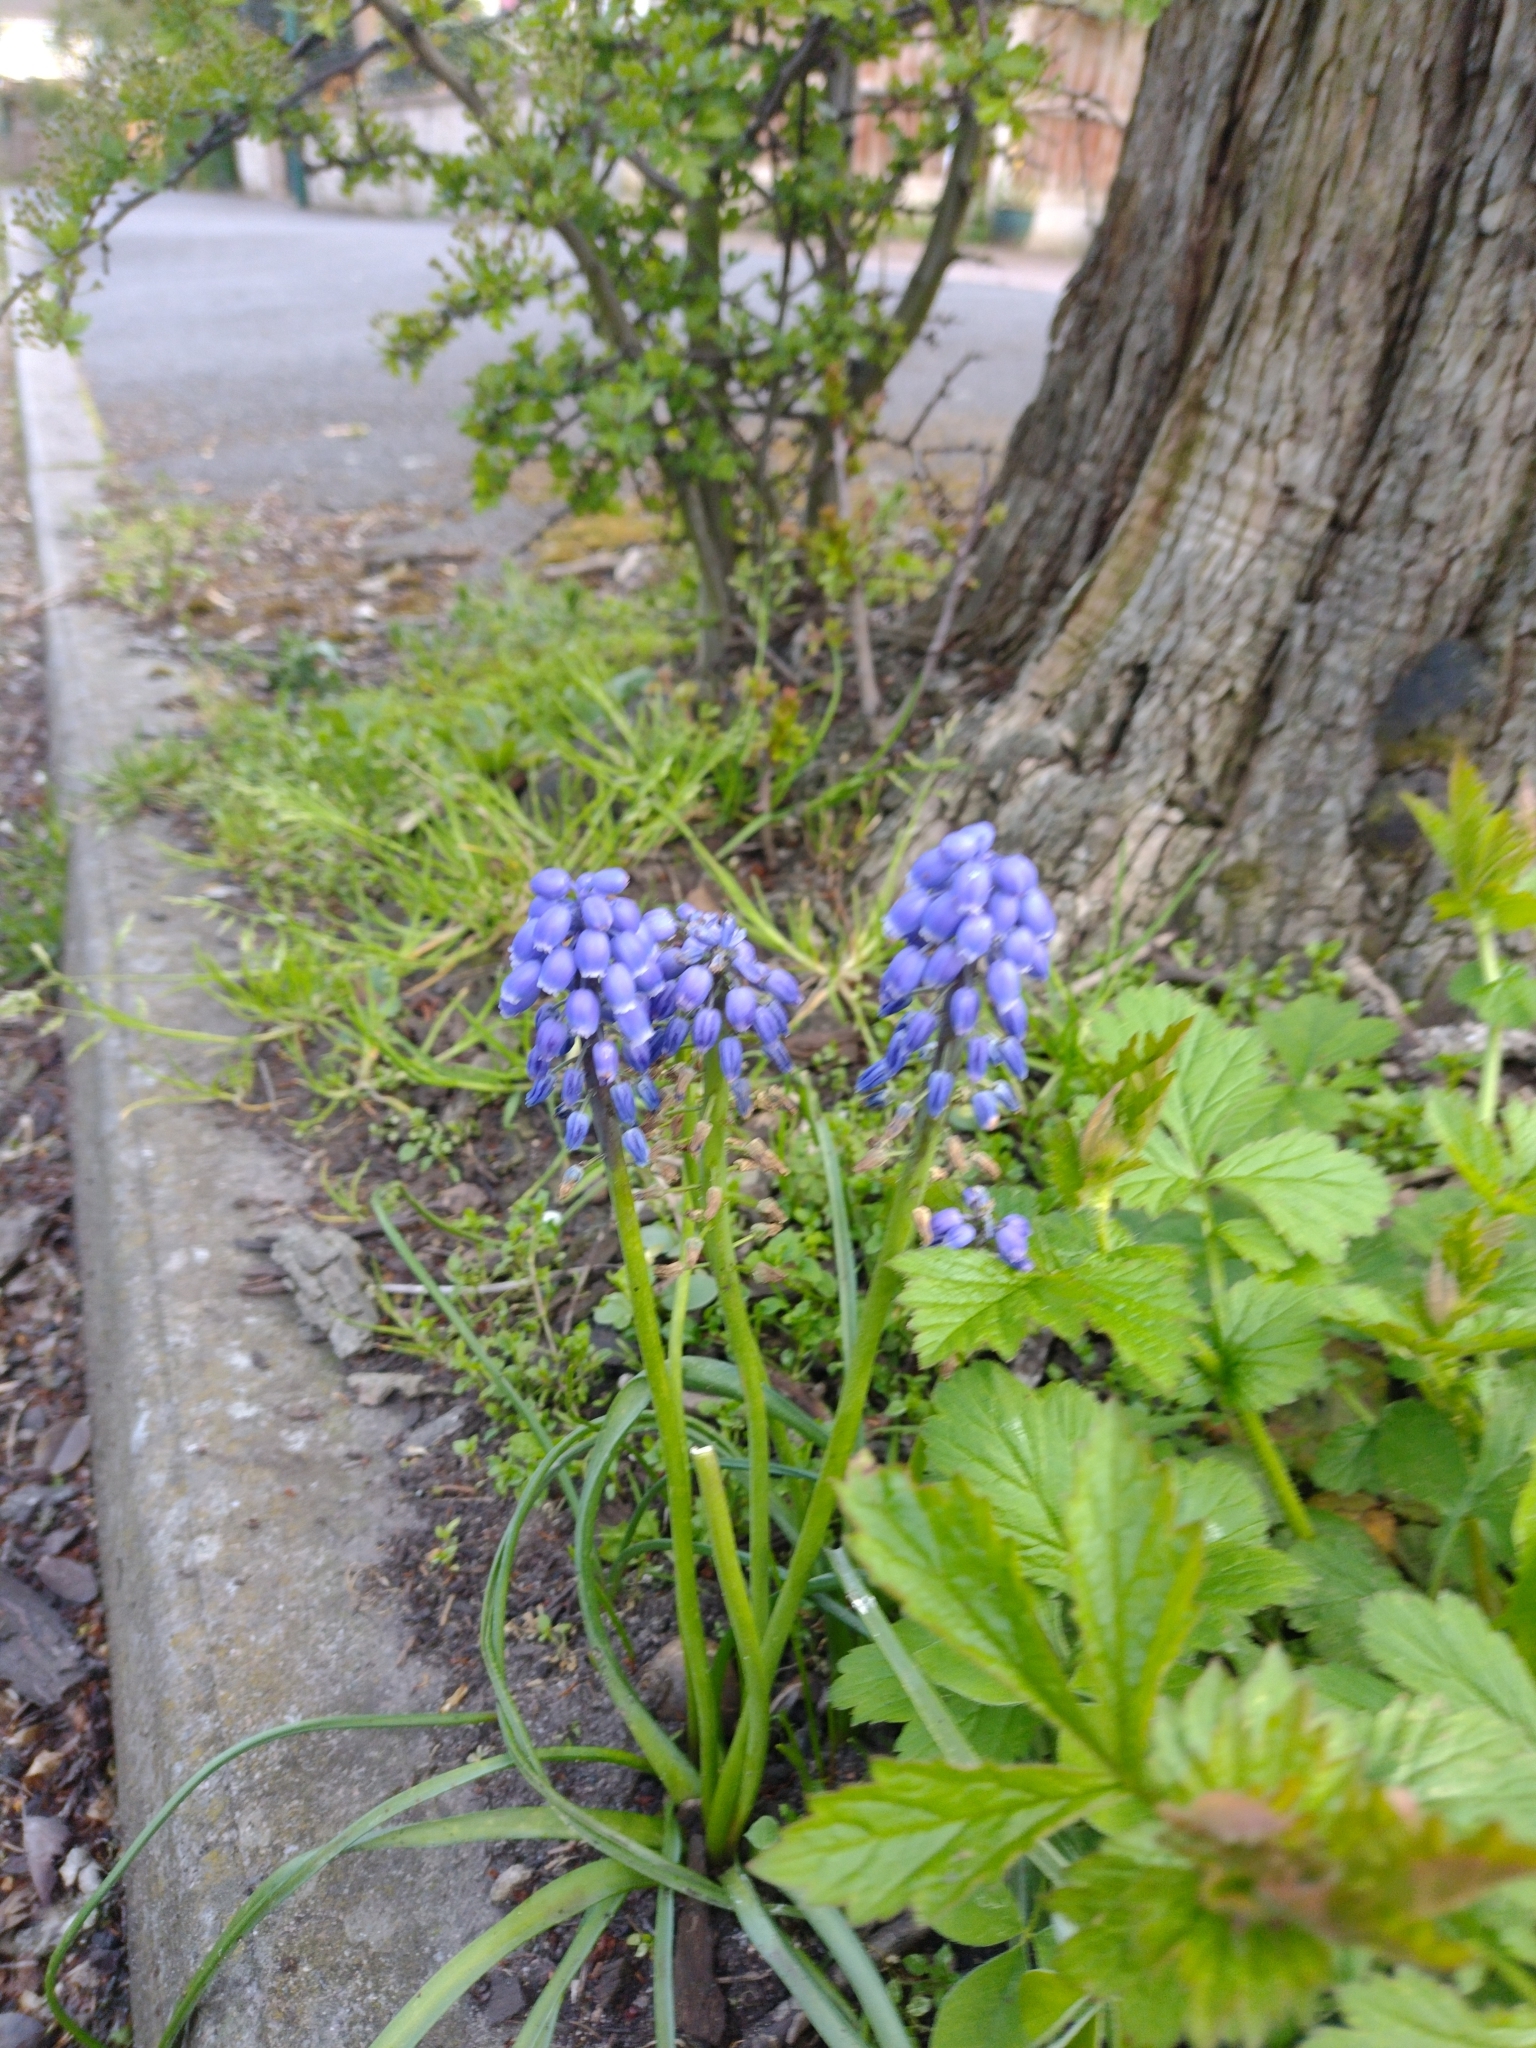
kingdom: Plantae
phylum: Tracheophyta
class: Liliopsida
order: Asparagales
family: Asparagaceae
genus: Muscari
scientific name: Muscari armeniacum
